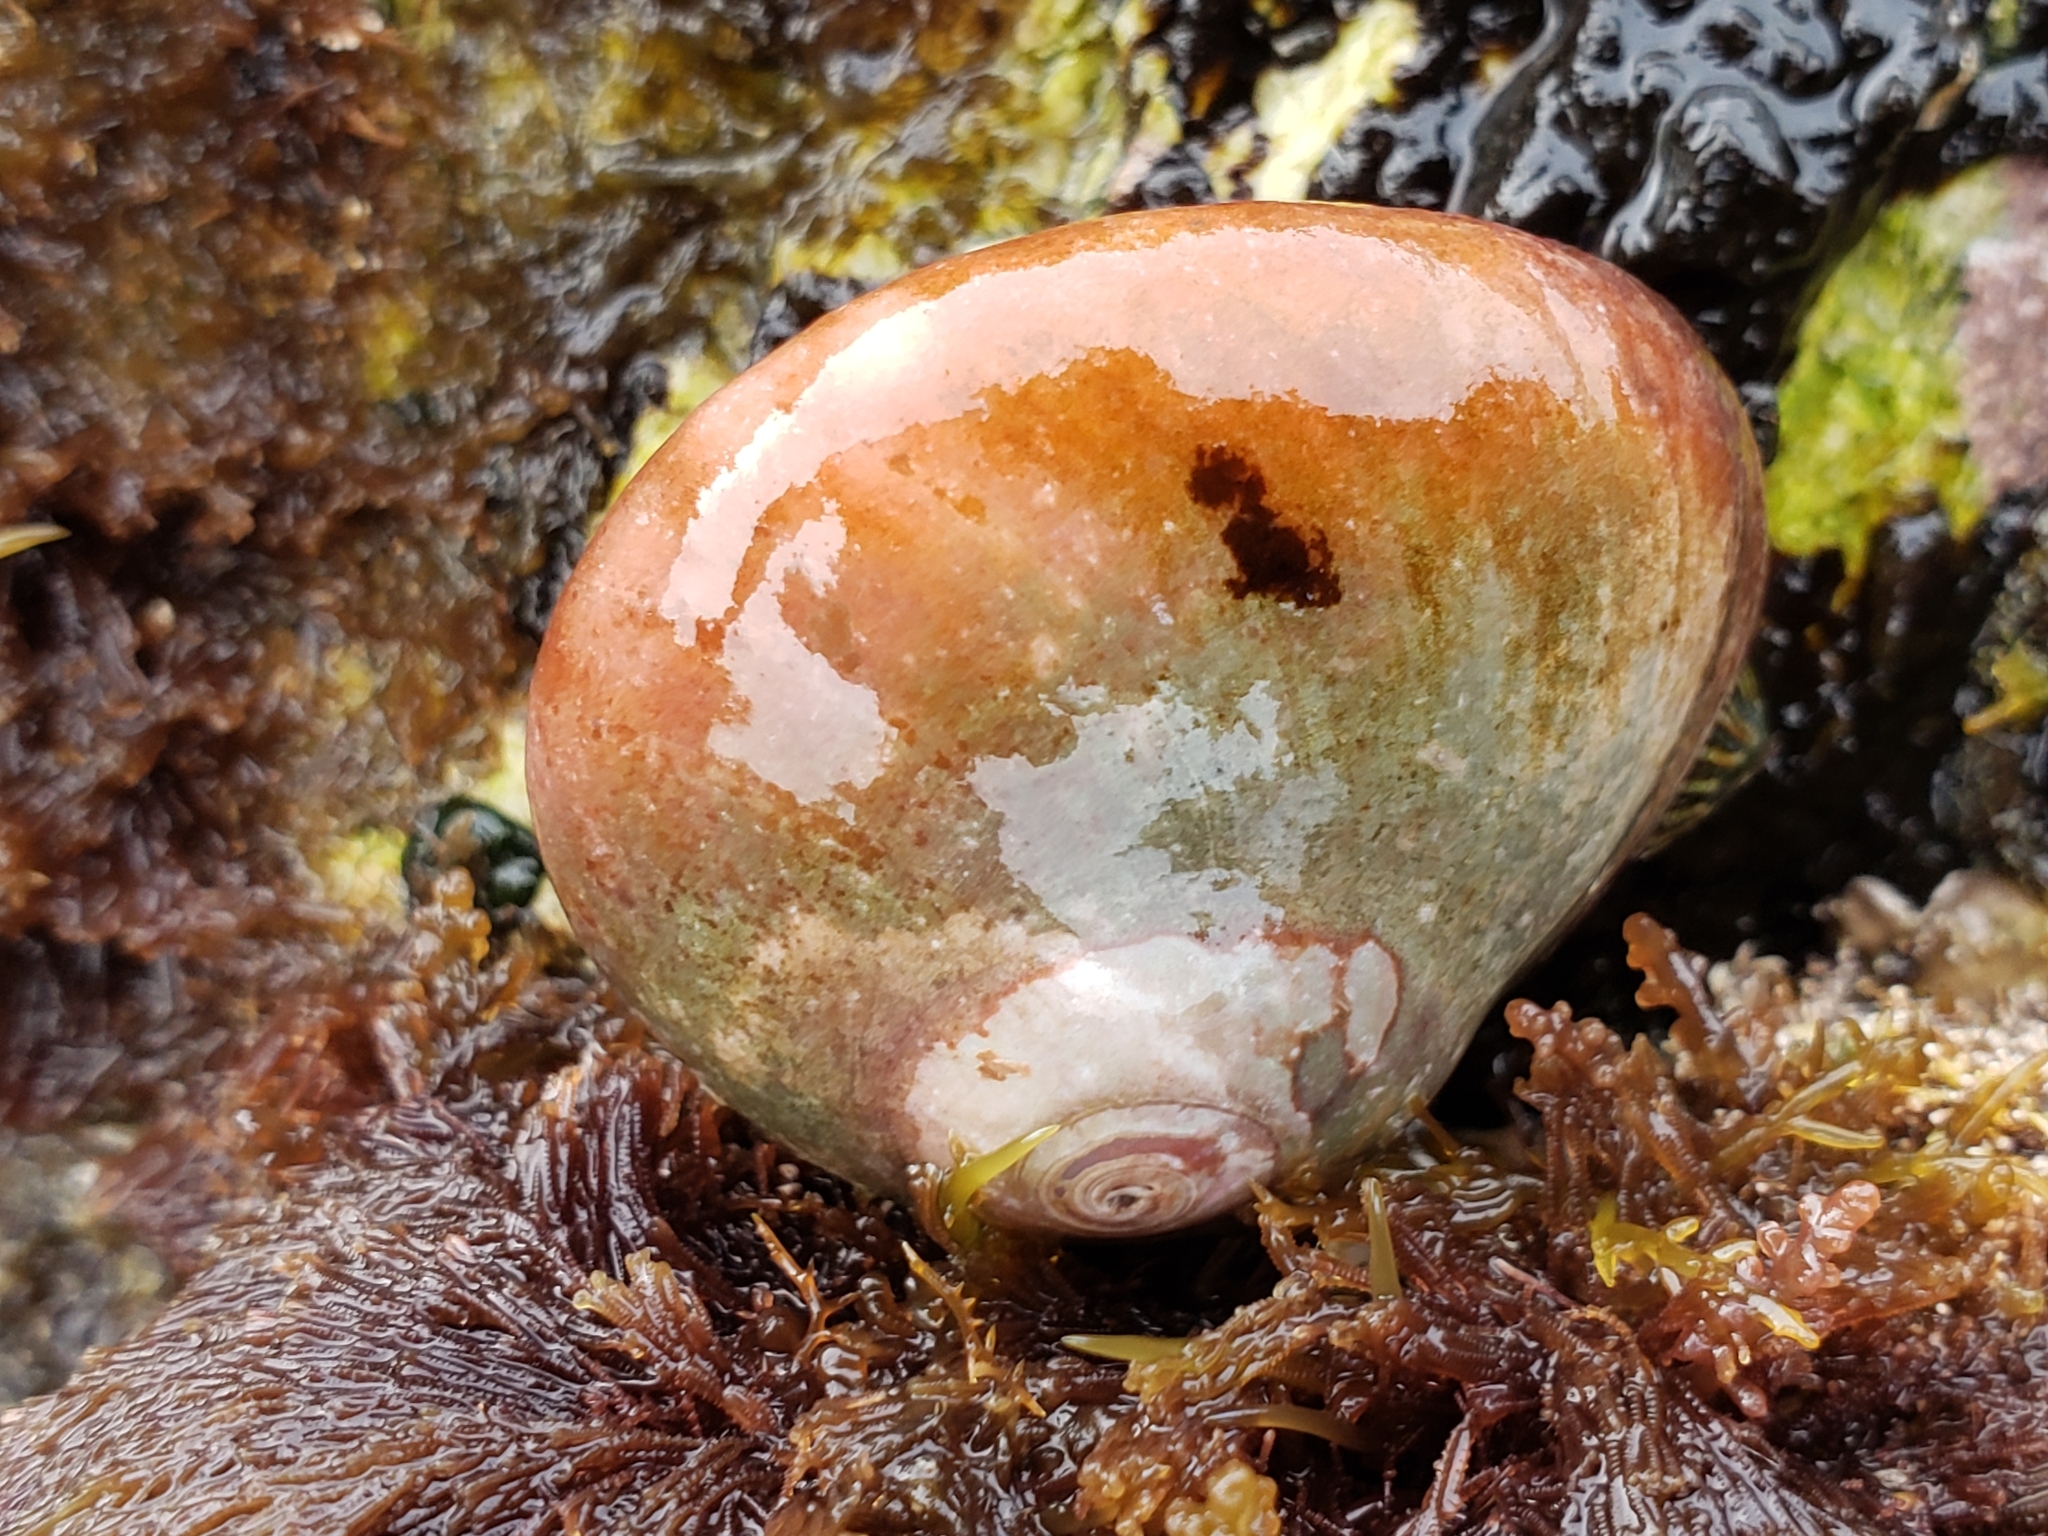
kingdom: Animalia
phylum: Mollusca
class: Gastropoda
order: Trochida
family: Tegulidae
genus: Norrisia
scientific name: Norrisia norrisii
